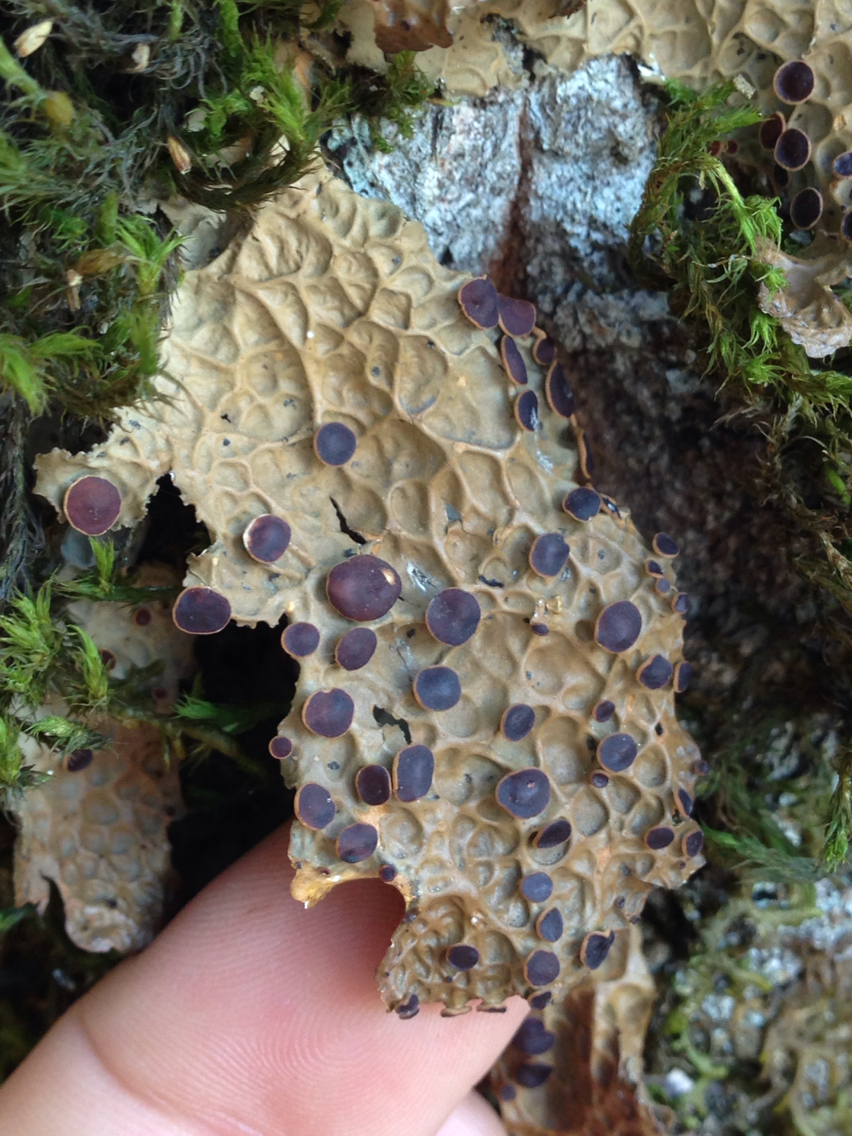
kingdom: Fungi
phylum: Ascomycota
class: Lecanoromycetes
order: Peltigerales
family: Lobariaceae
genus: Lobaria
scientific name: Lobaria anthraspis
